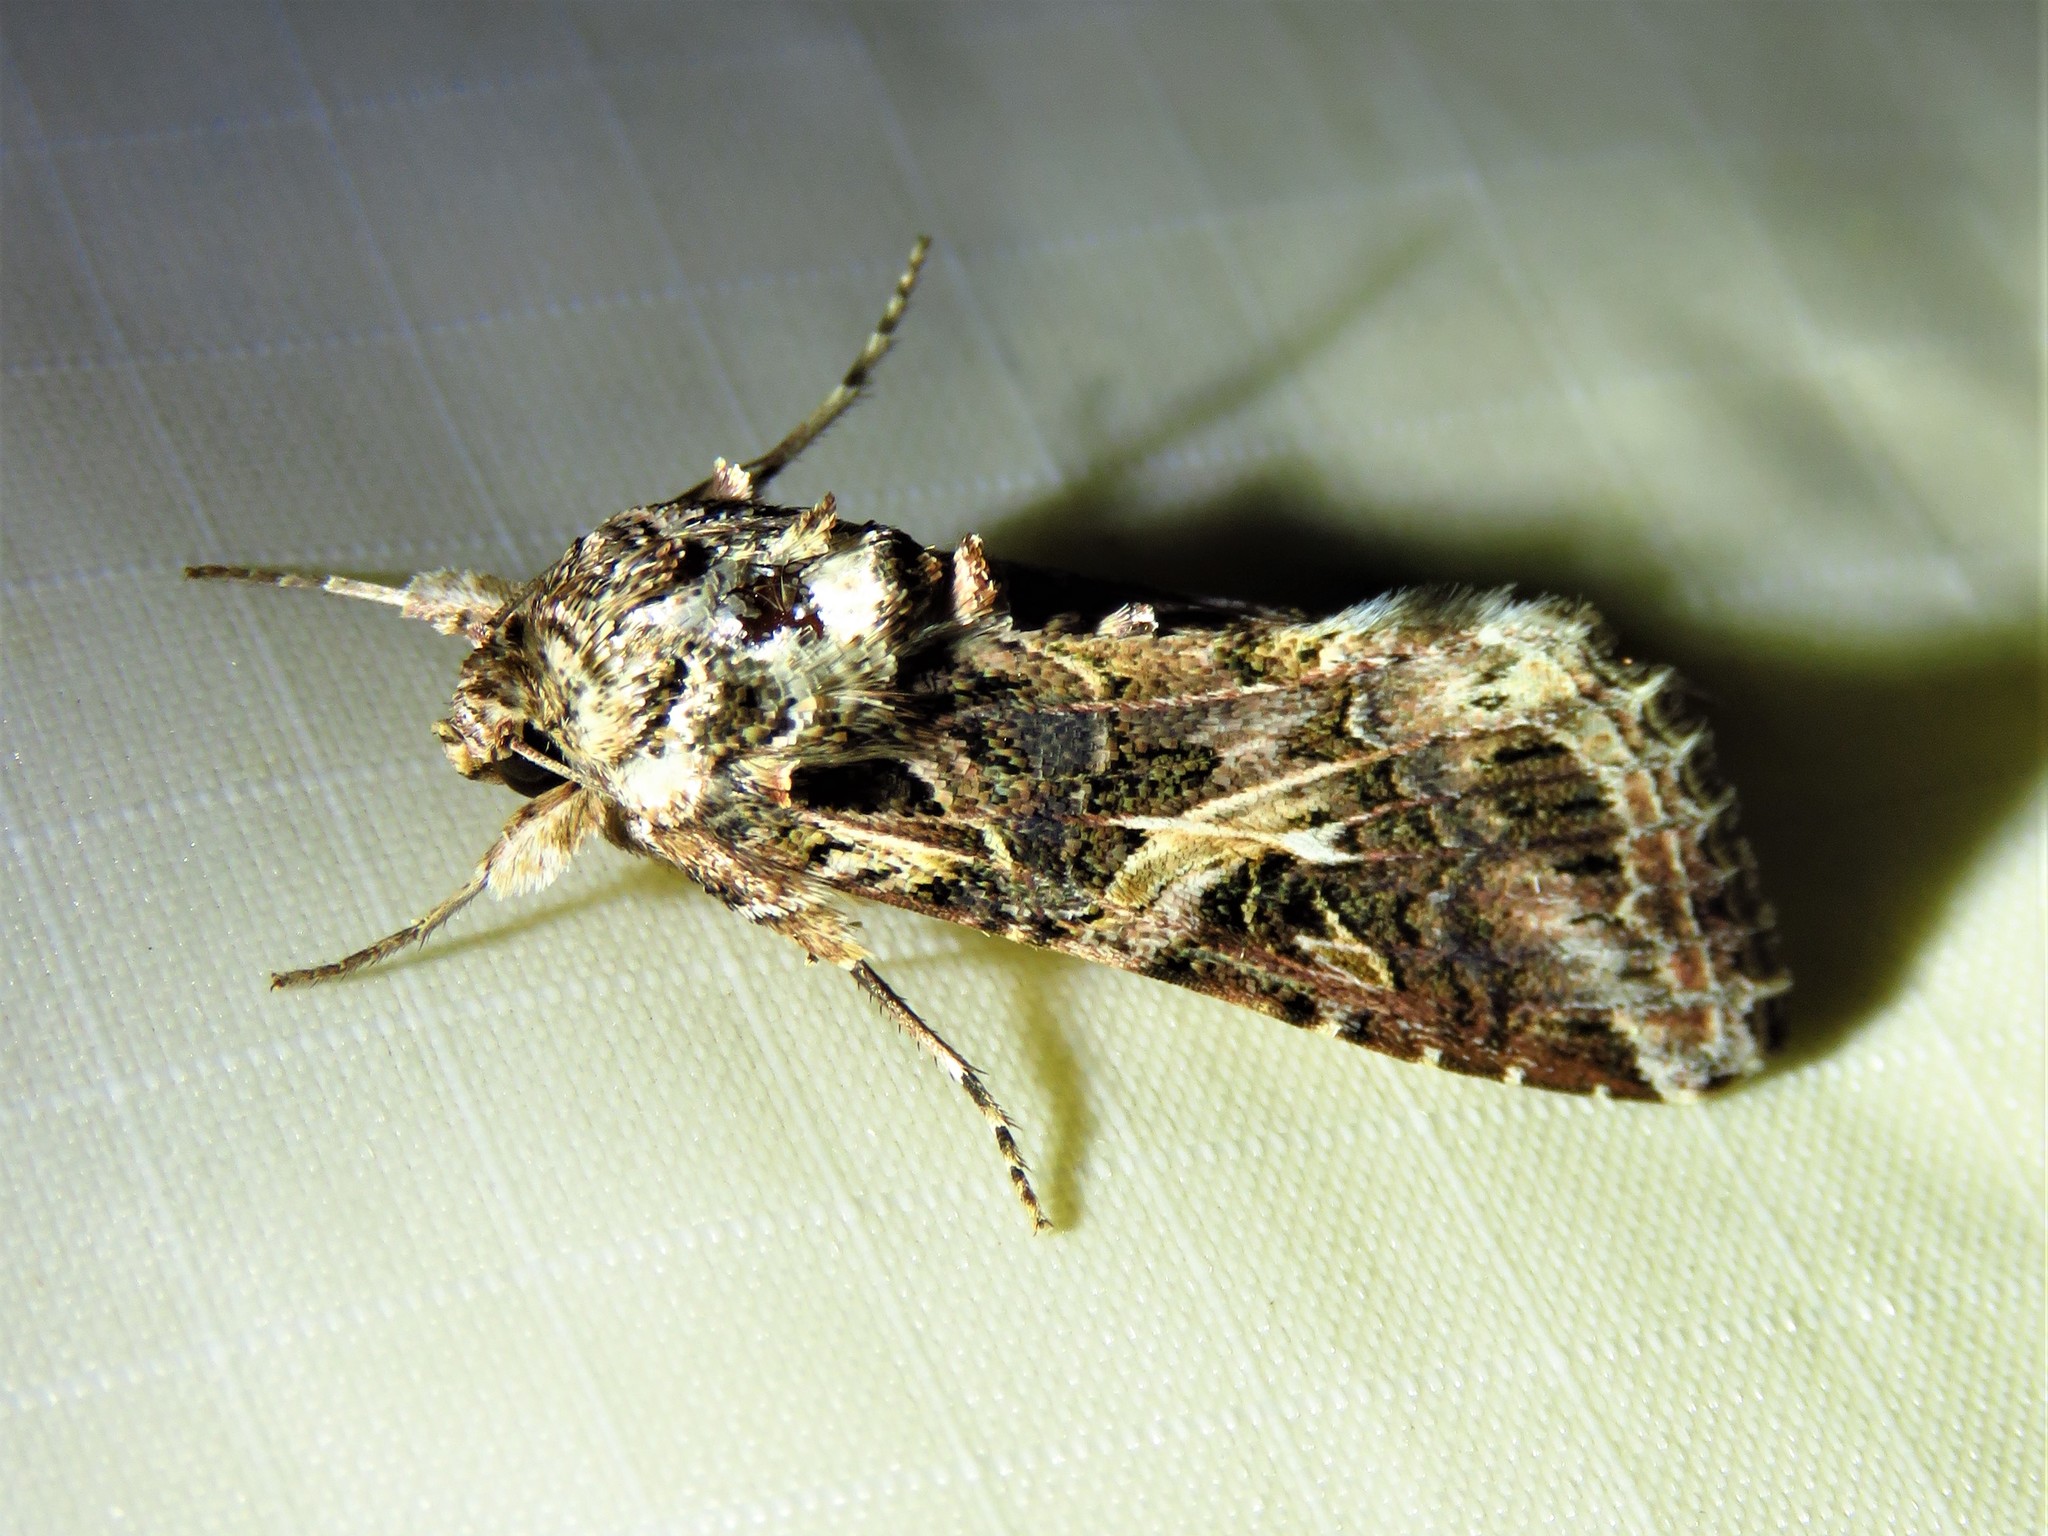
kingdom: Animalia
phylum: Arthropoda
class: Insecta
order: Lepidoptera
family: Noctuidae
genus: Spodoptera
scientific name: Spodoptera ornithogalli
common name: Yellow-striped armyworm
